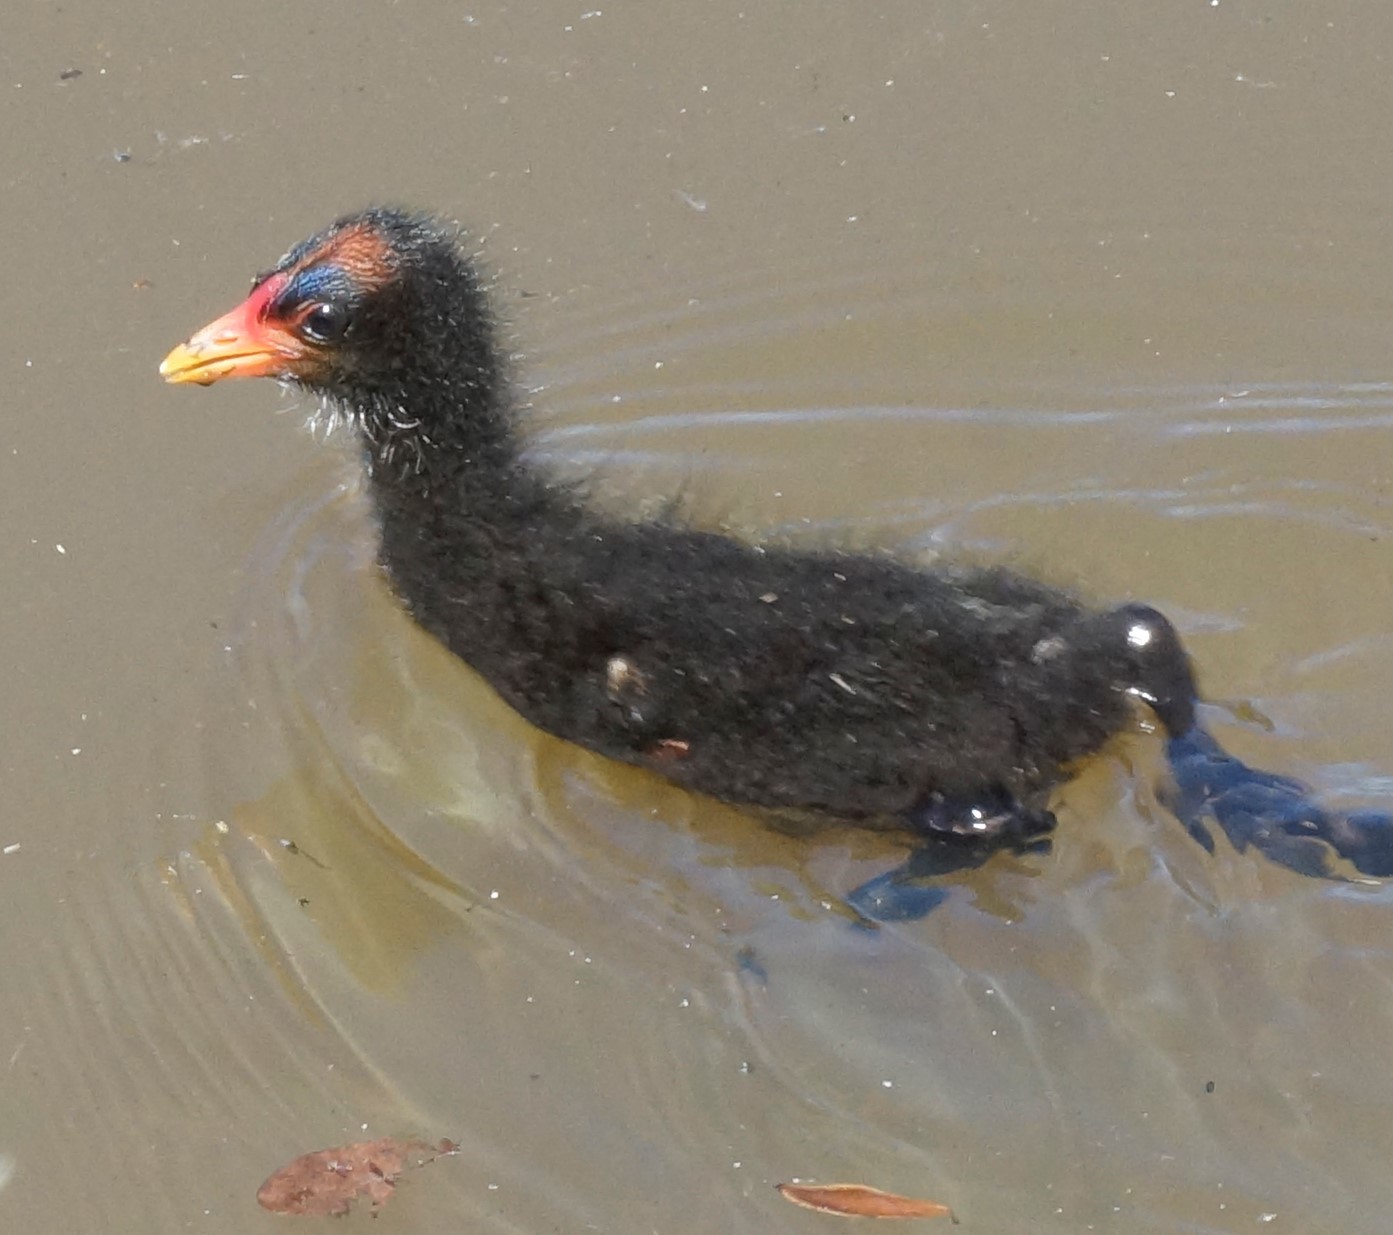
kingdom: Animalia
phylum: Chordata
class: Aves
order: Gruiformes
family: Rallidae
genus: Gallinula
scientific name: Gallinula tenebrosa
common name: Dusky moorhen
